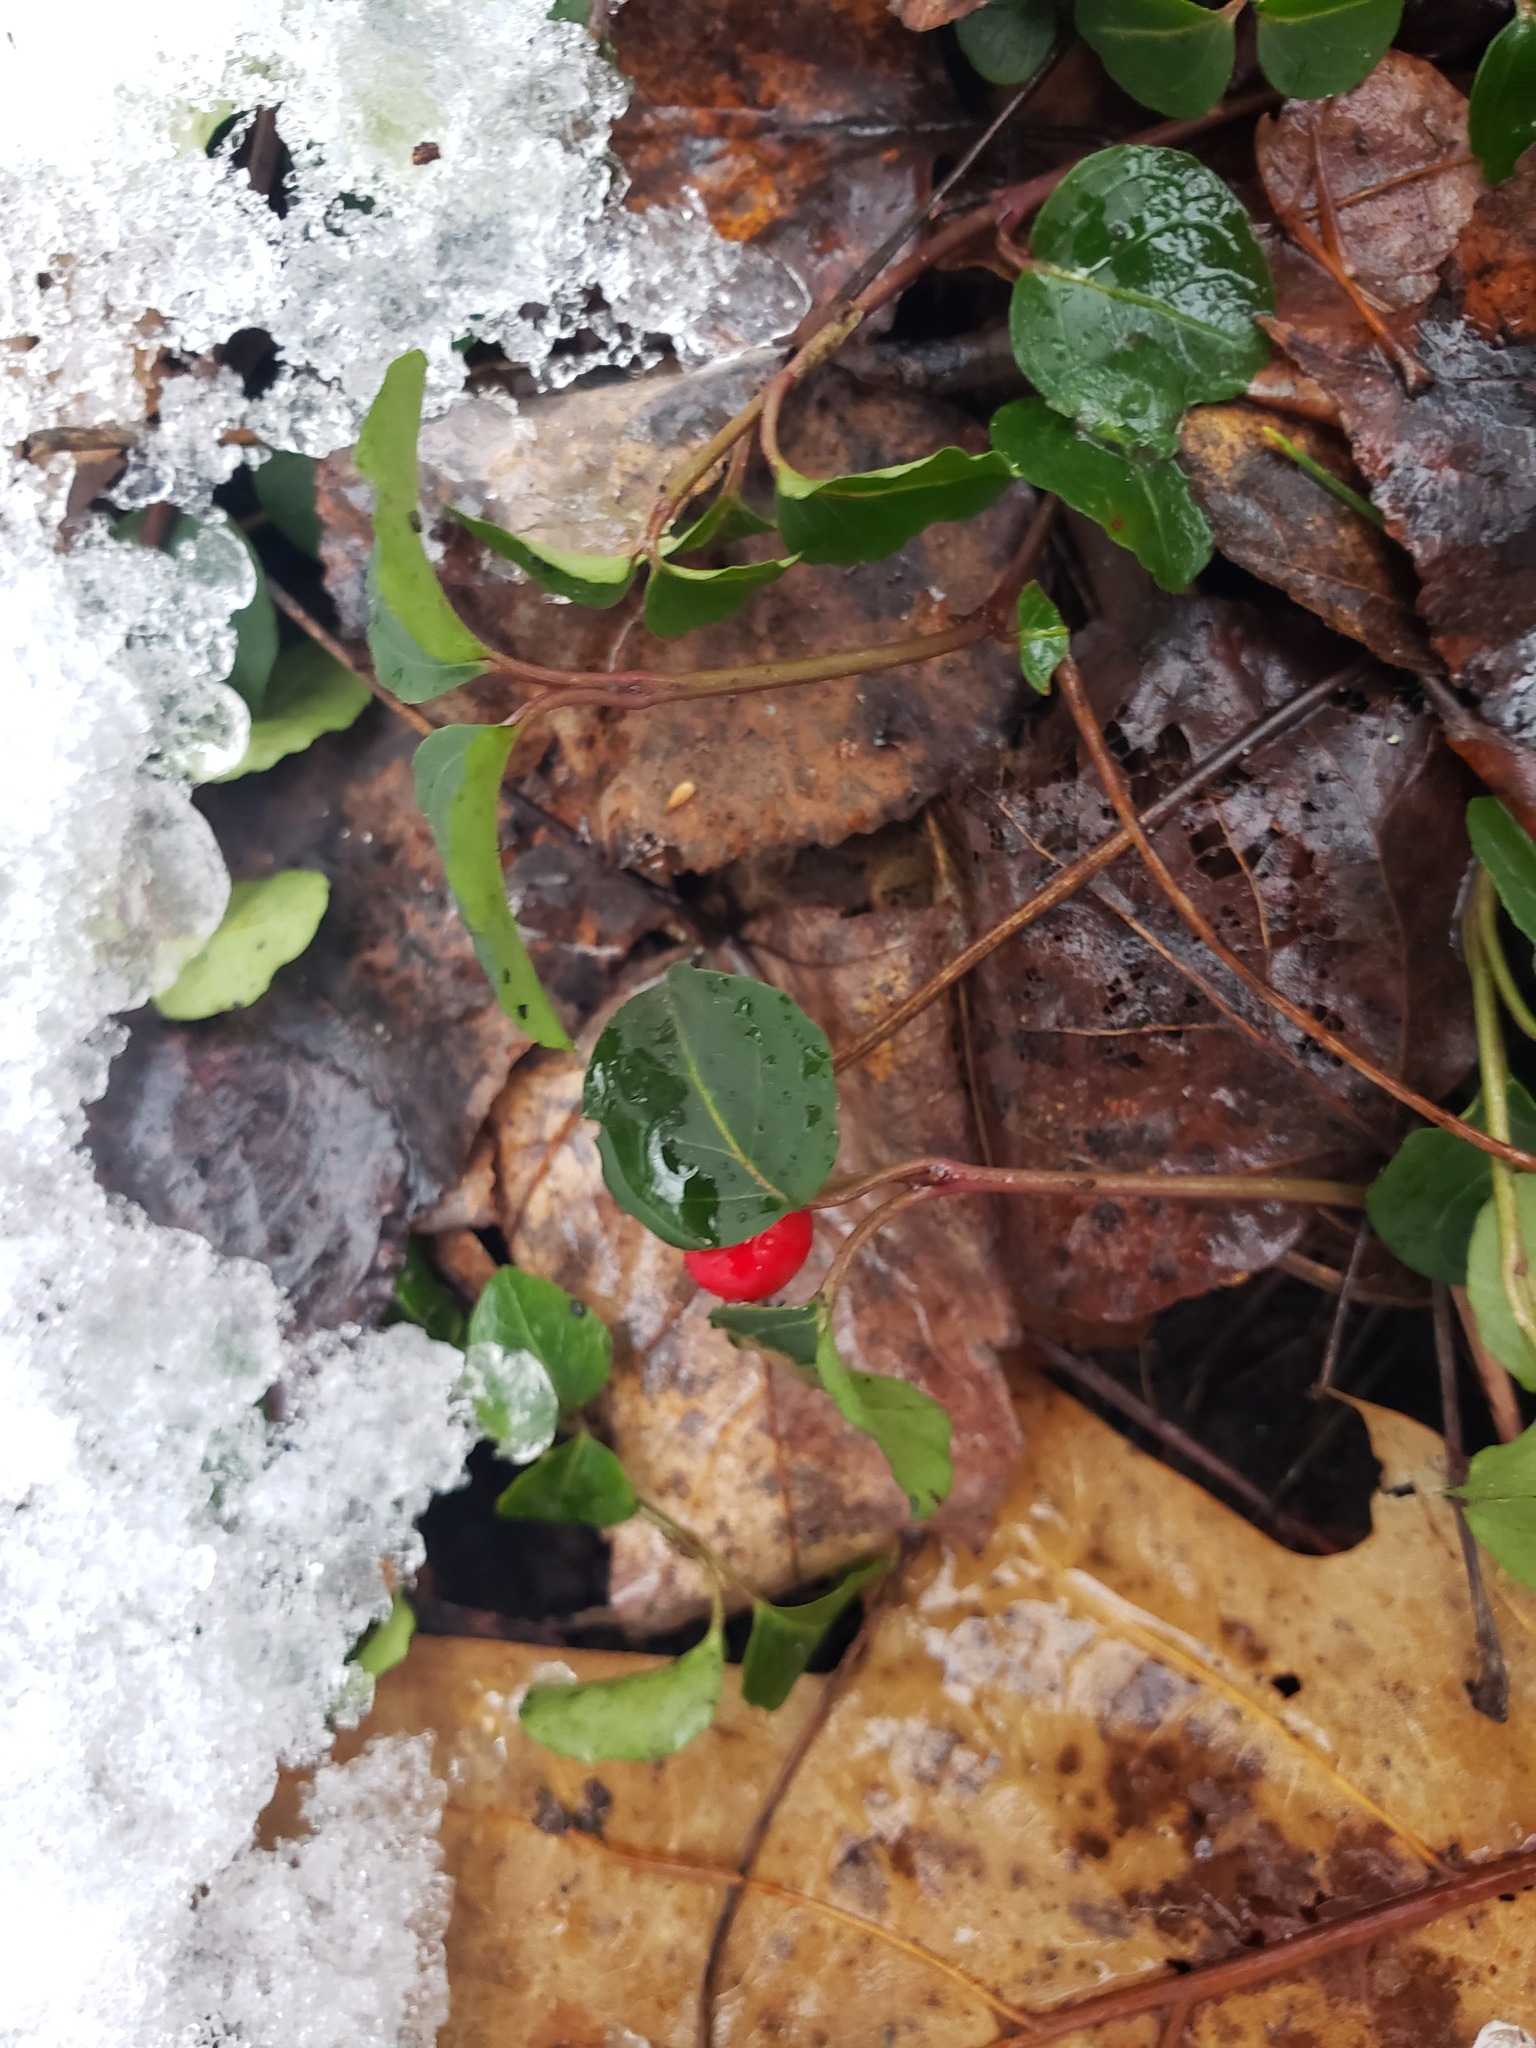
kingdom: Plantae
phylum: Tracheophyta
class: Magnoliopsida
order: Gentianales
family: Rubiaceae
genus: Mitchella
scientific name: Mitchella repens
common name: Partridge-berry
